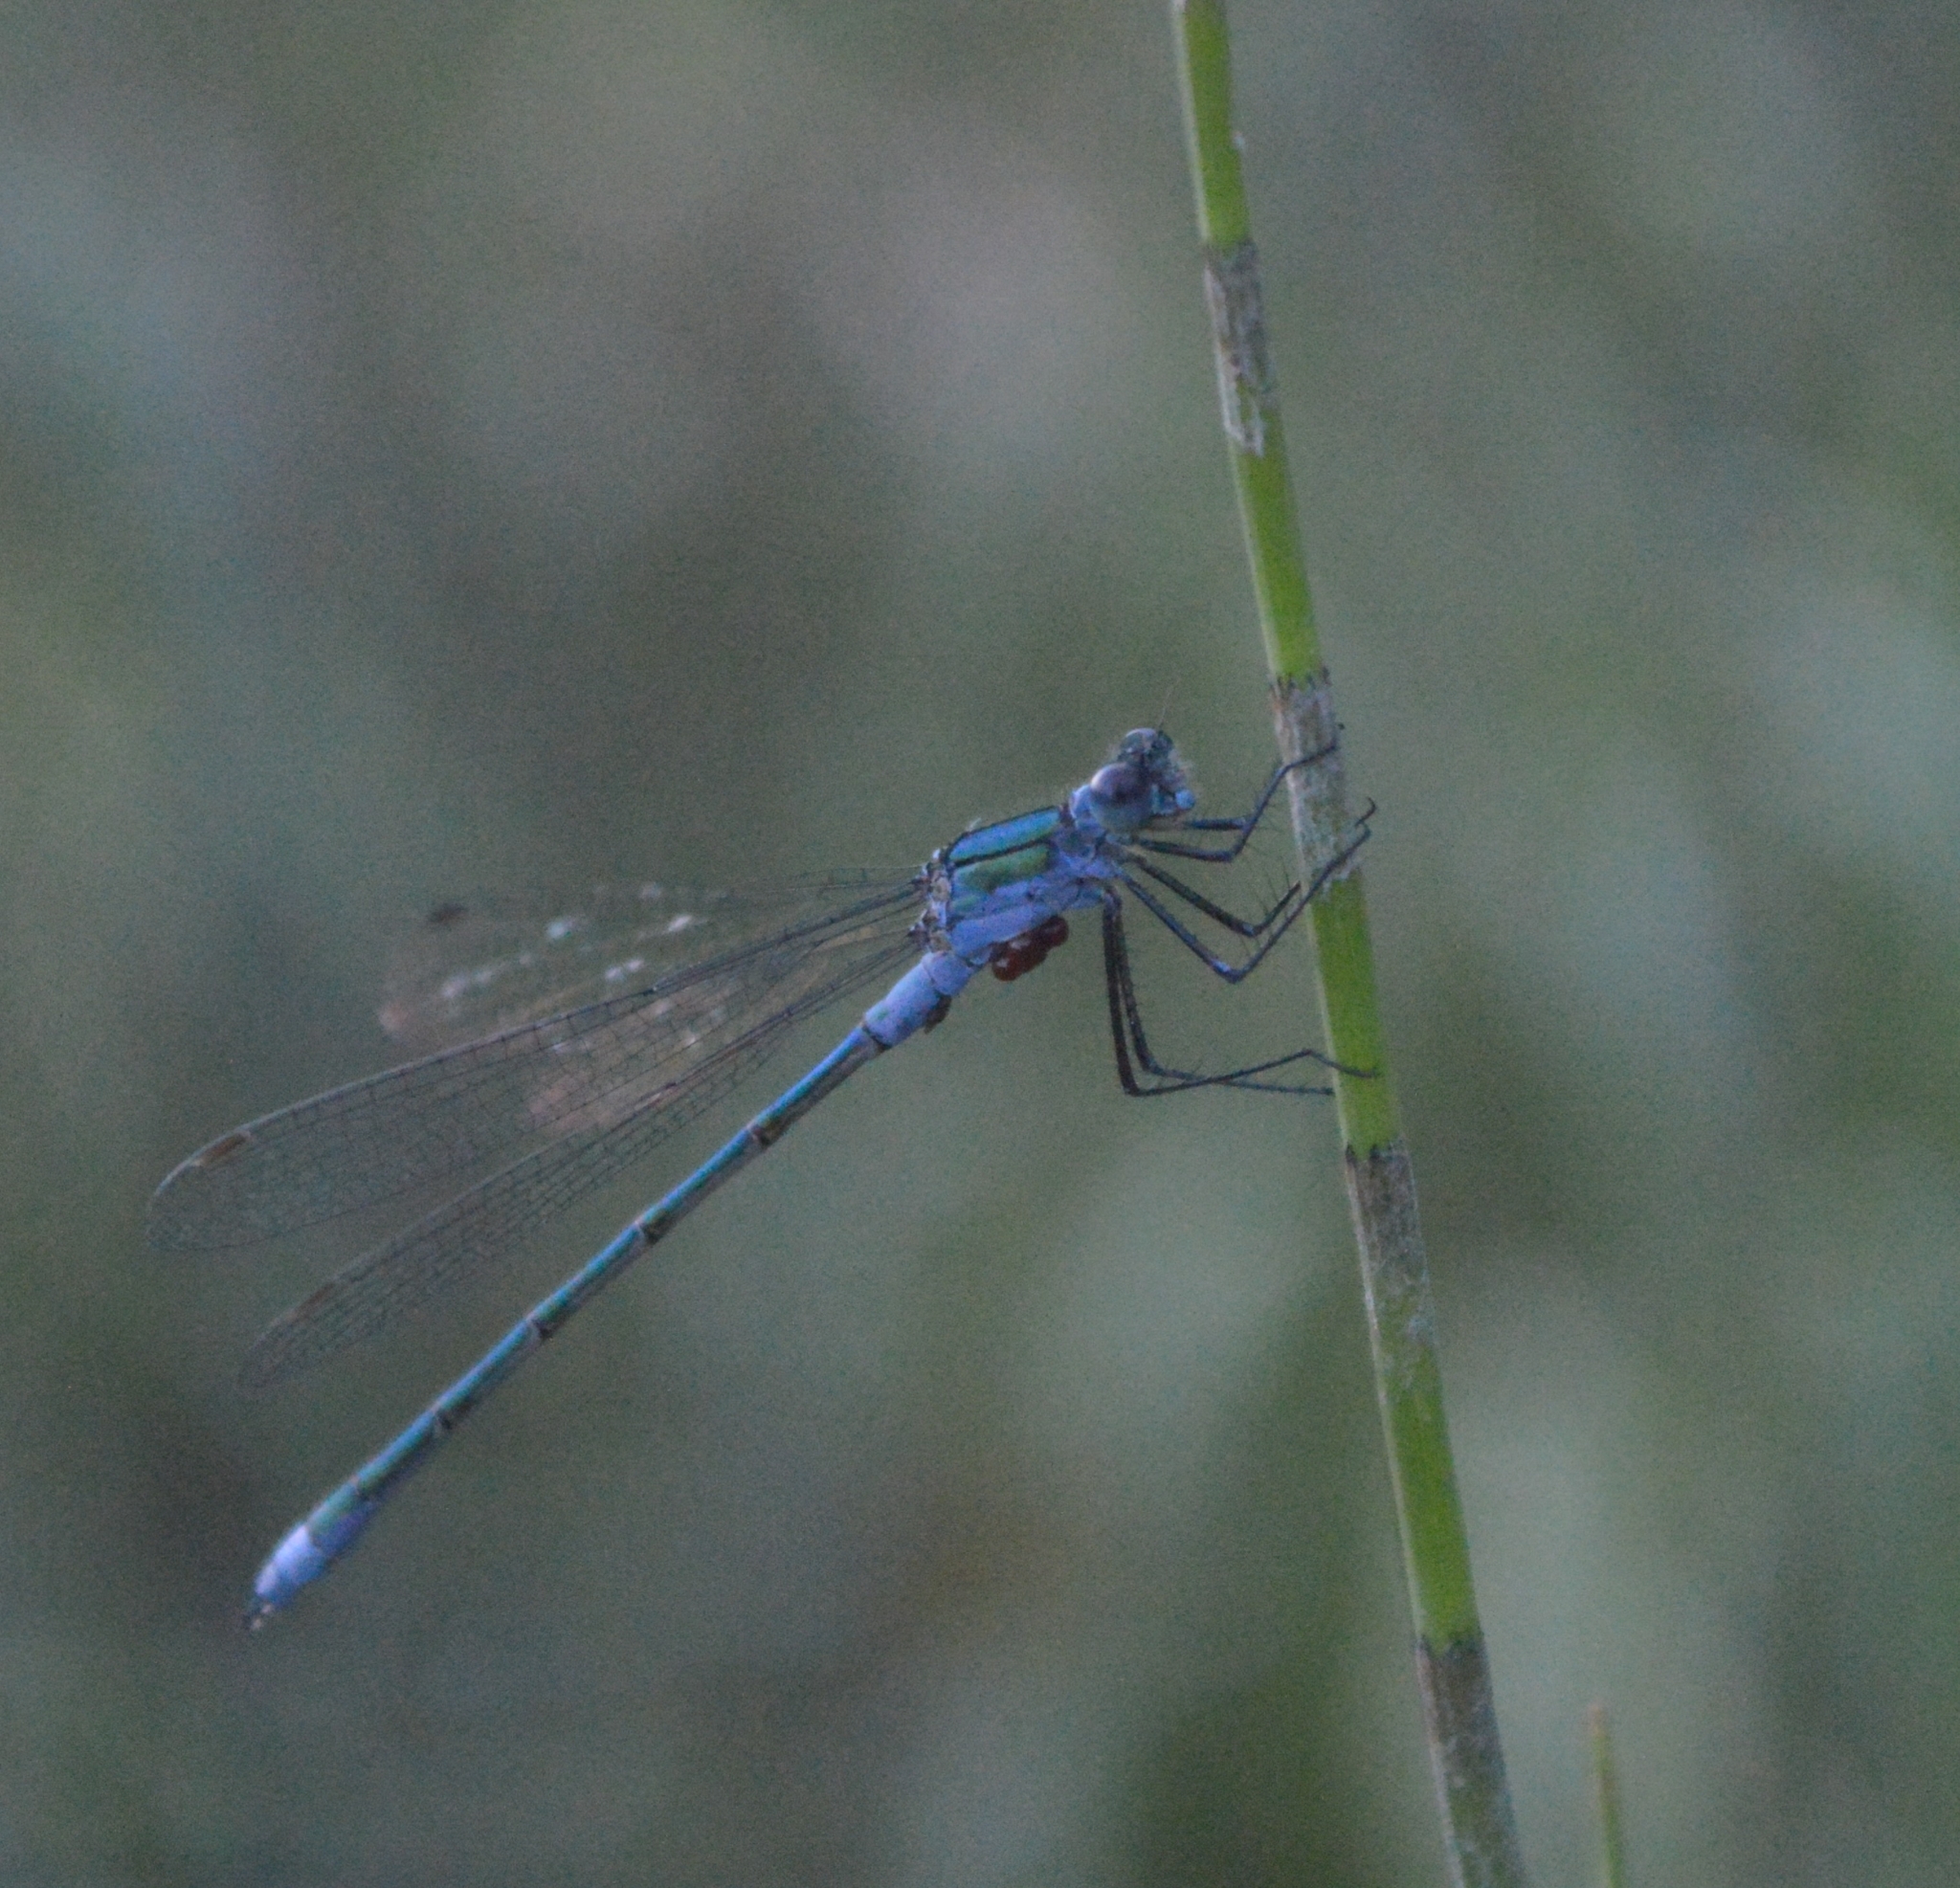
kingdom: Animalia
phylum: Arthropoda
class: Insecta
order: Odonata
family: Lestidae
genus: Lestes
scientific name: Lestes sponsa
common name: Common spreadwing
